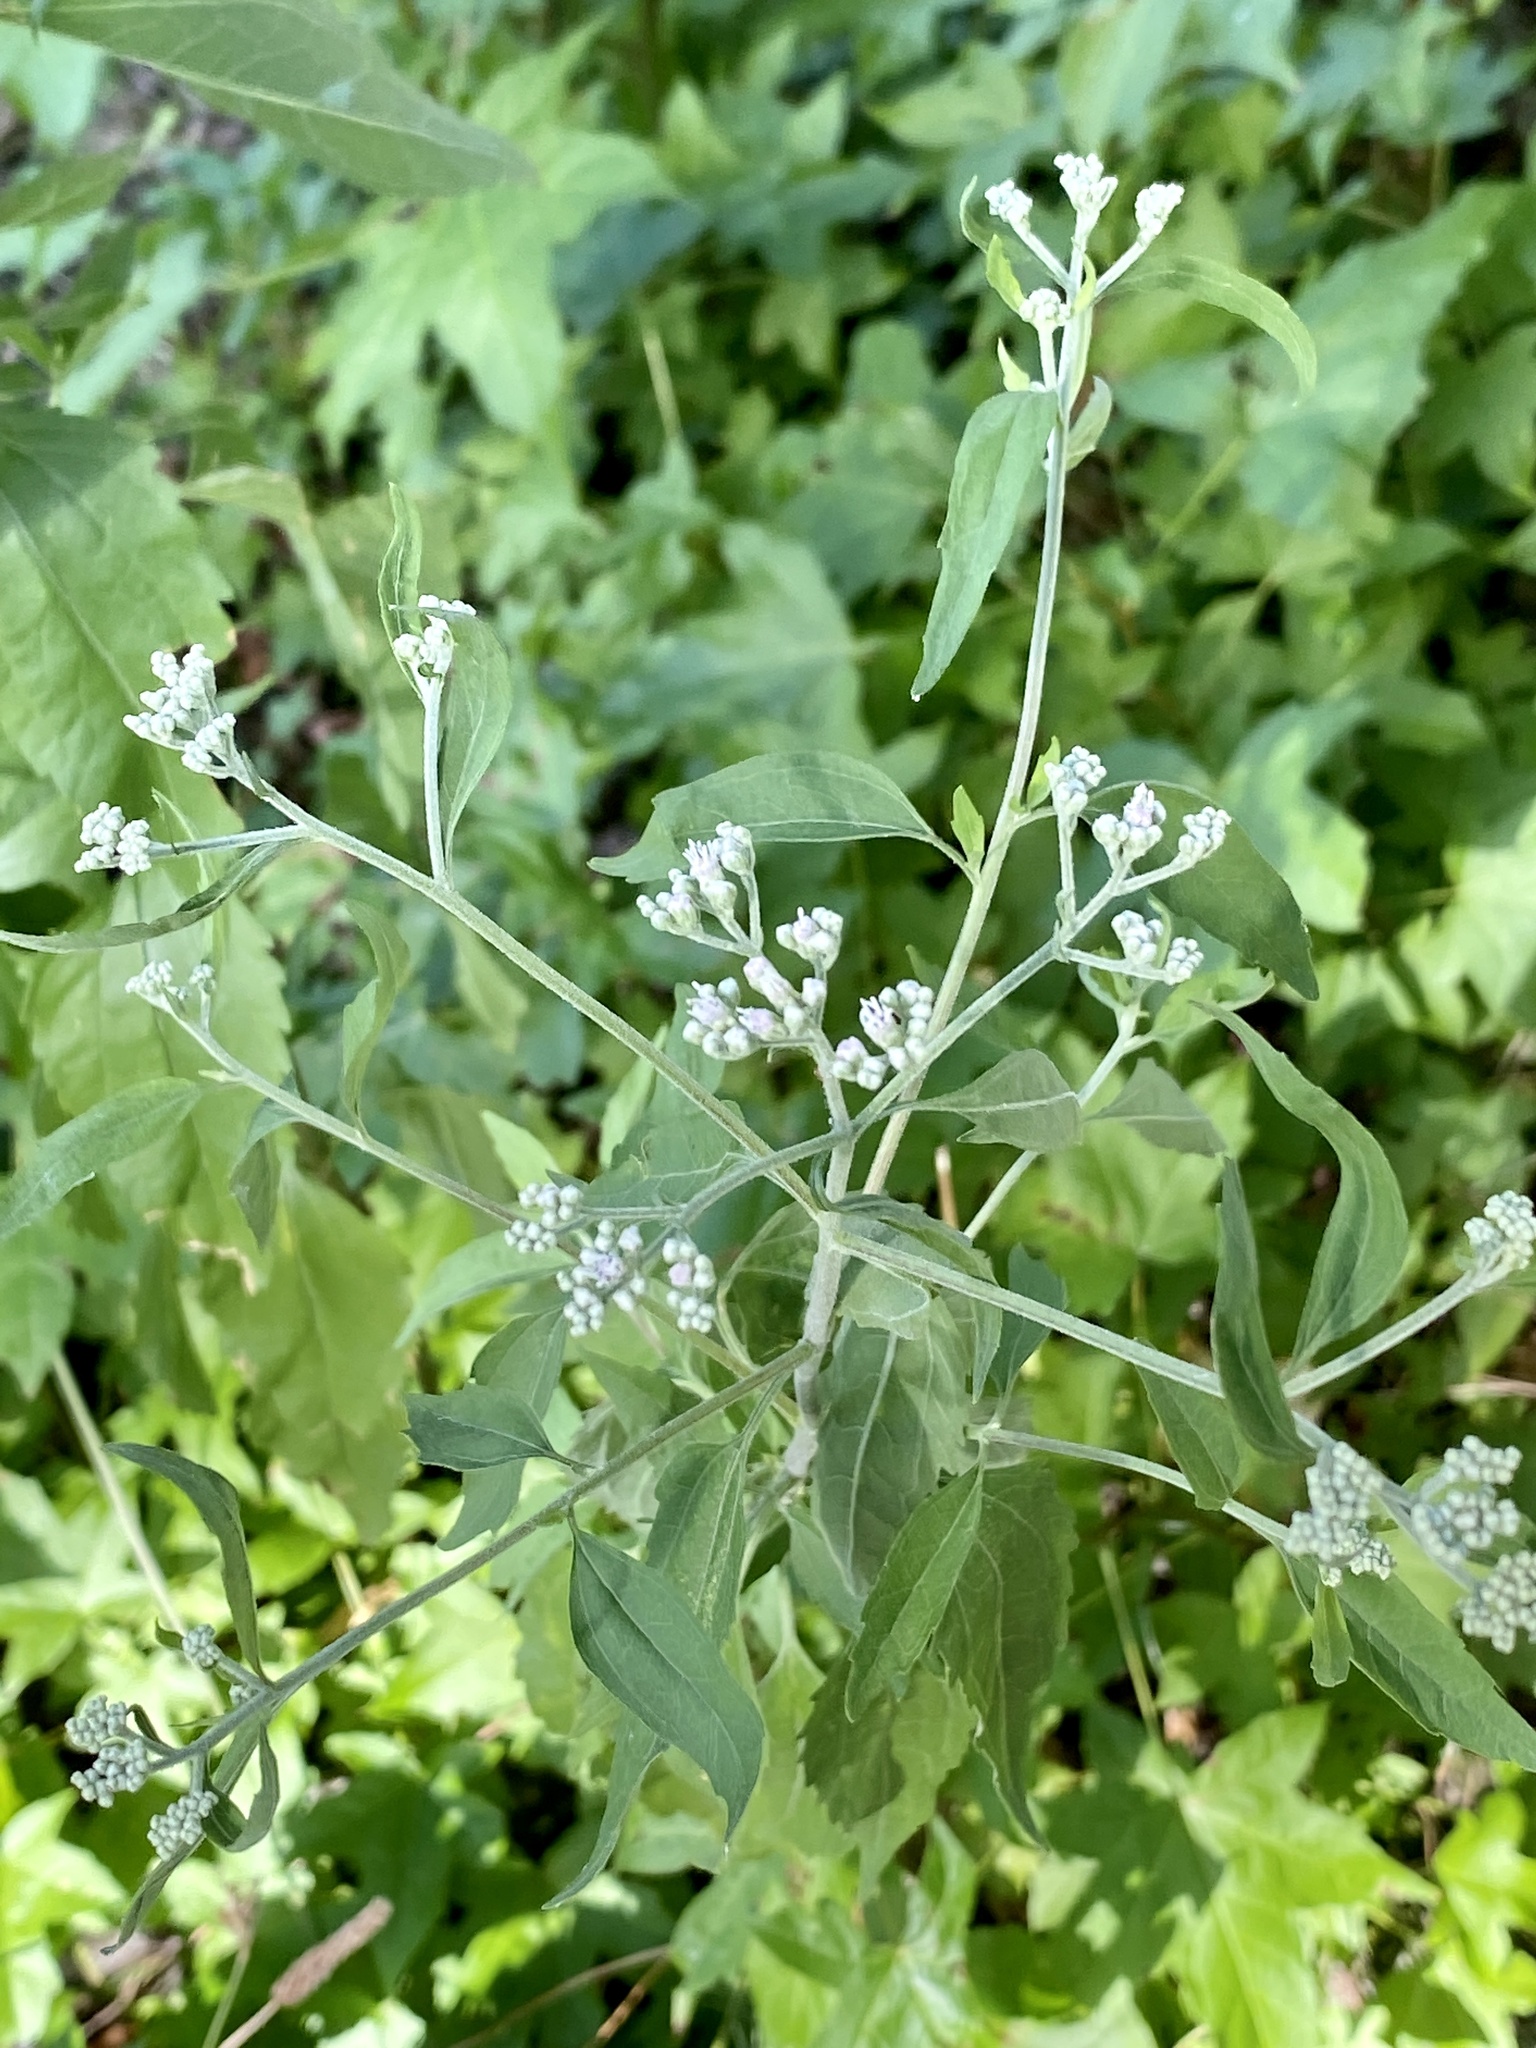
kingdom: Plantae
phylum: Tracheophyta
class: Magnoliopsida
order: Asterales
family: Asteraceae
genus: Eupatorium
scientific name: Eupatorium serotinum
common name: Late boneset
